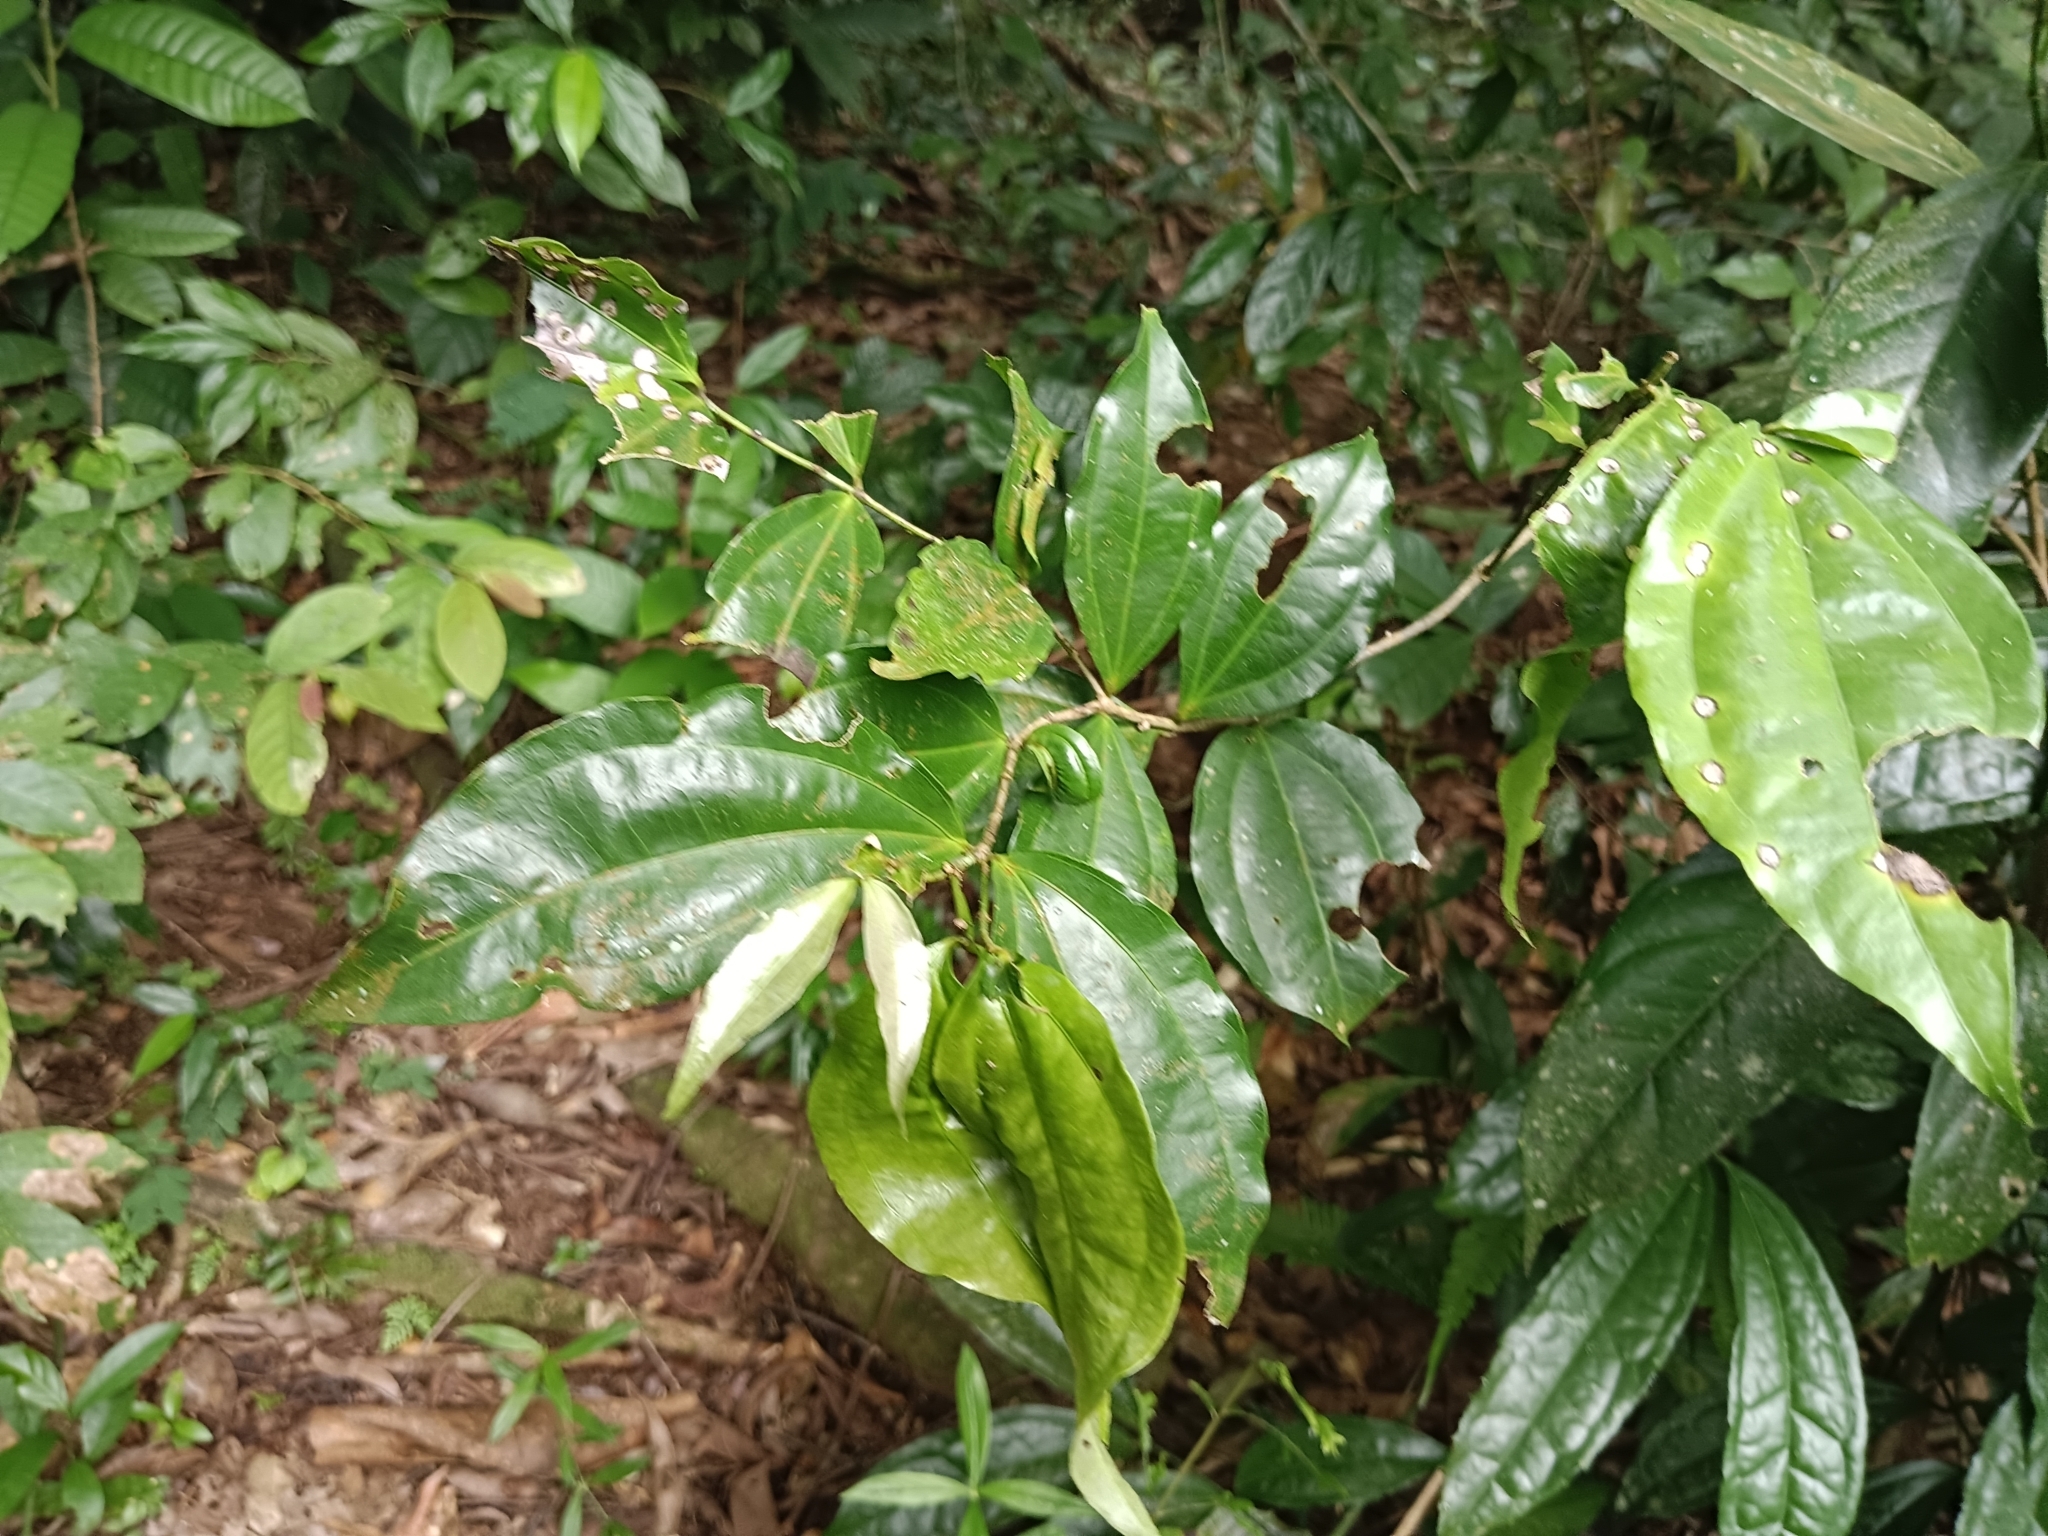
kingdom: Plantae
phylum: Tracheophyta
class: Magnoliopsida
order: Ranunculales
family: Menispermaceae
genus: Tiliacora
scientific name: Tiliacora acuminata
